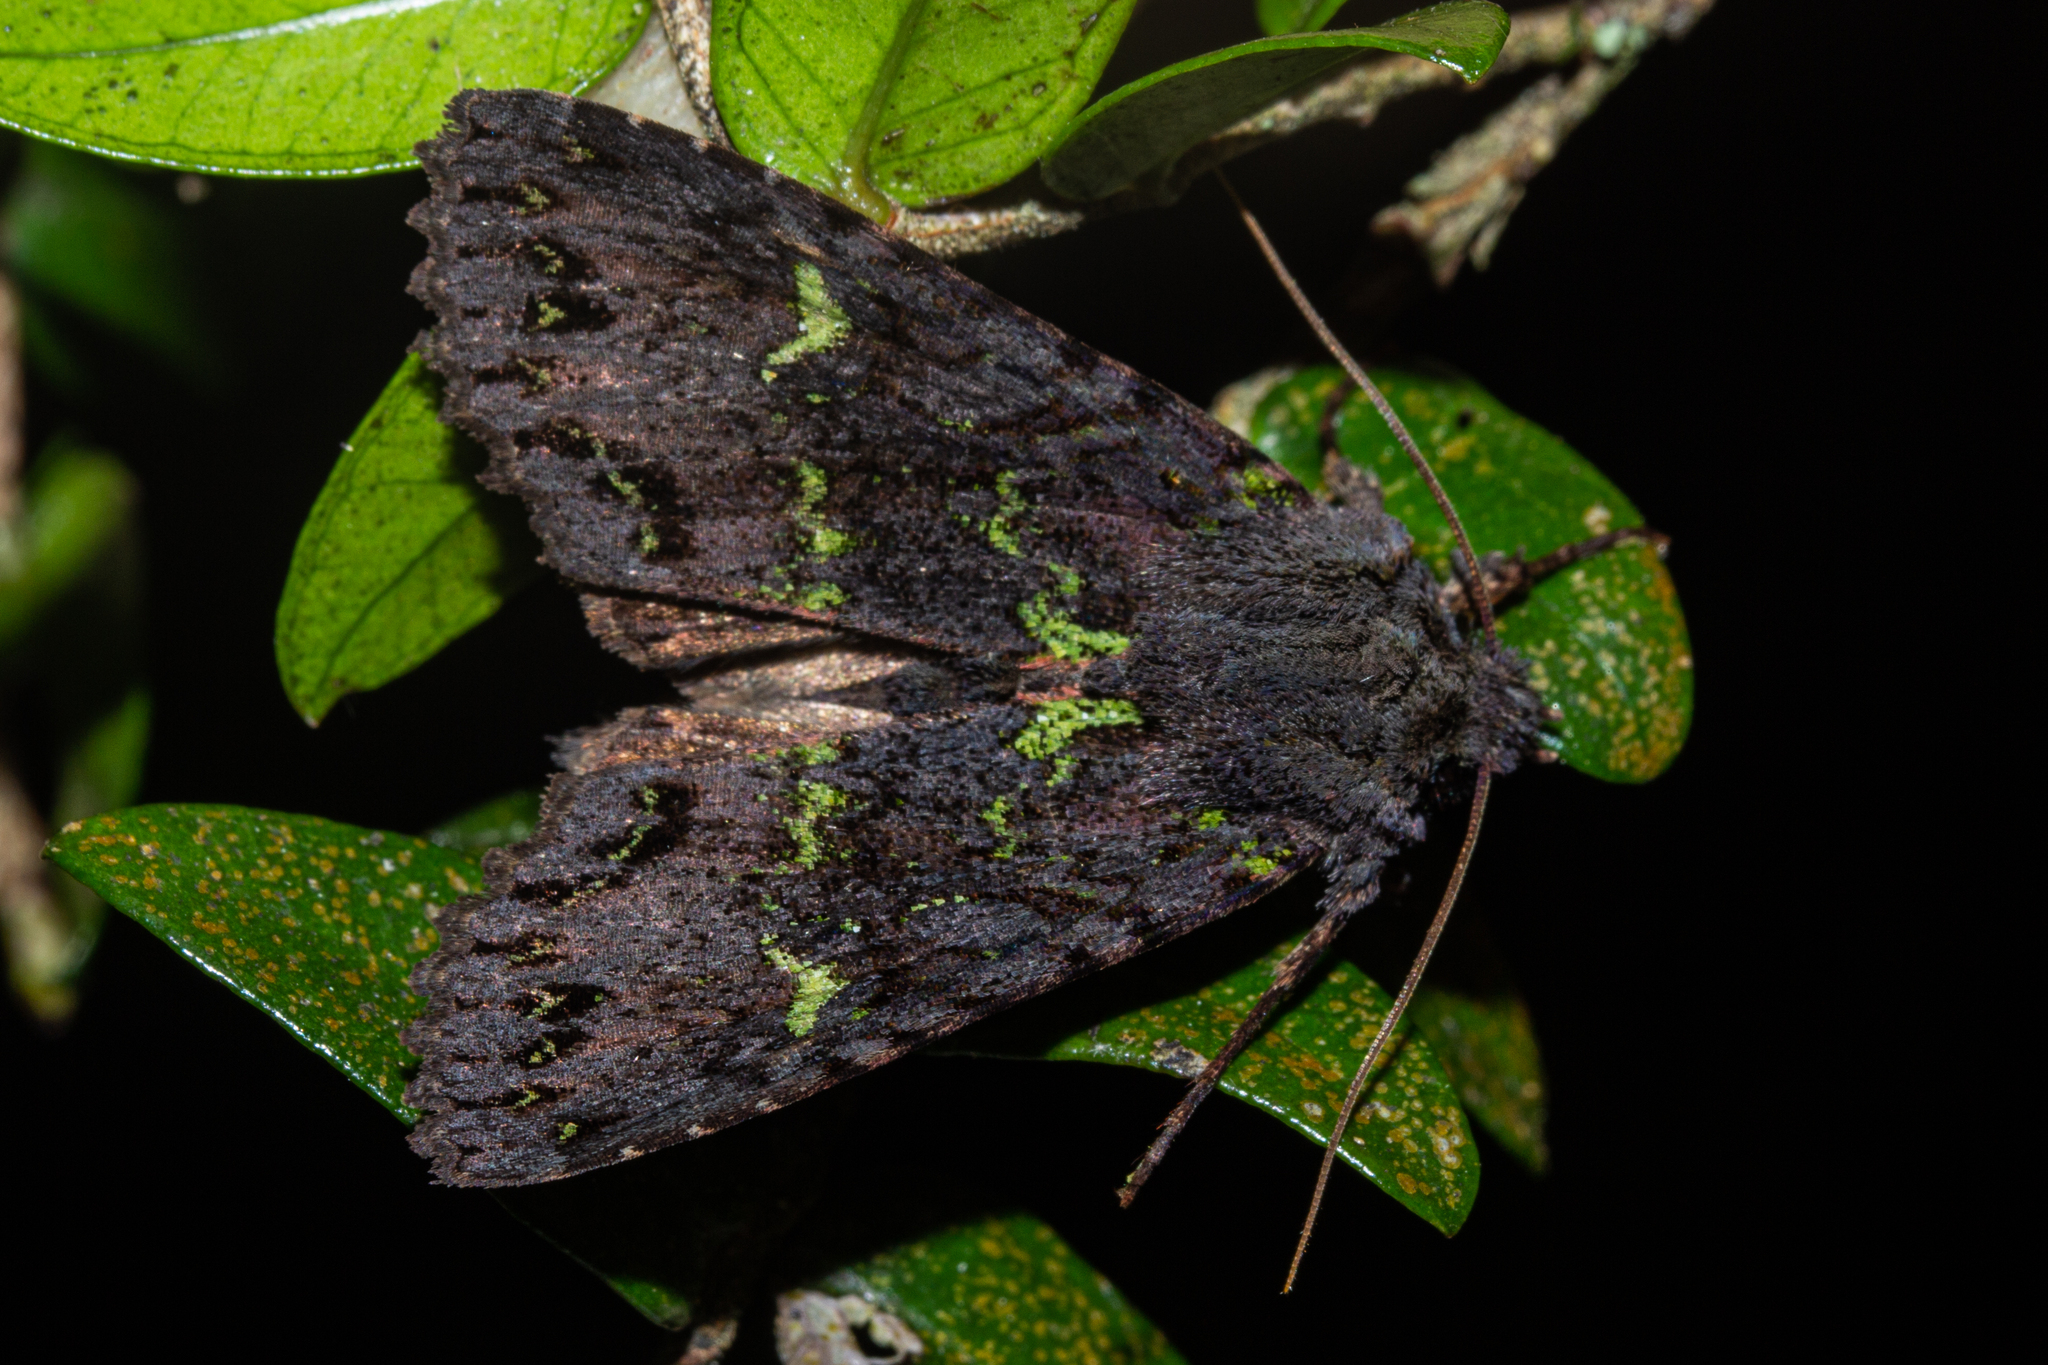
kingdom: Animalia
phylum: Arthropoda
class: Insecta
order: Lepidoptera
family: Noctuidae
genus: Meterana
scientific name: Meterana merope
